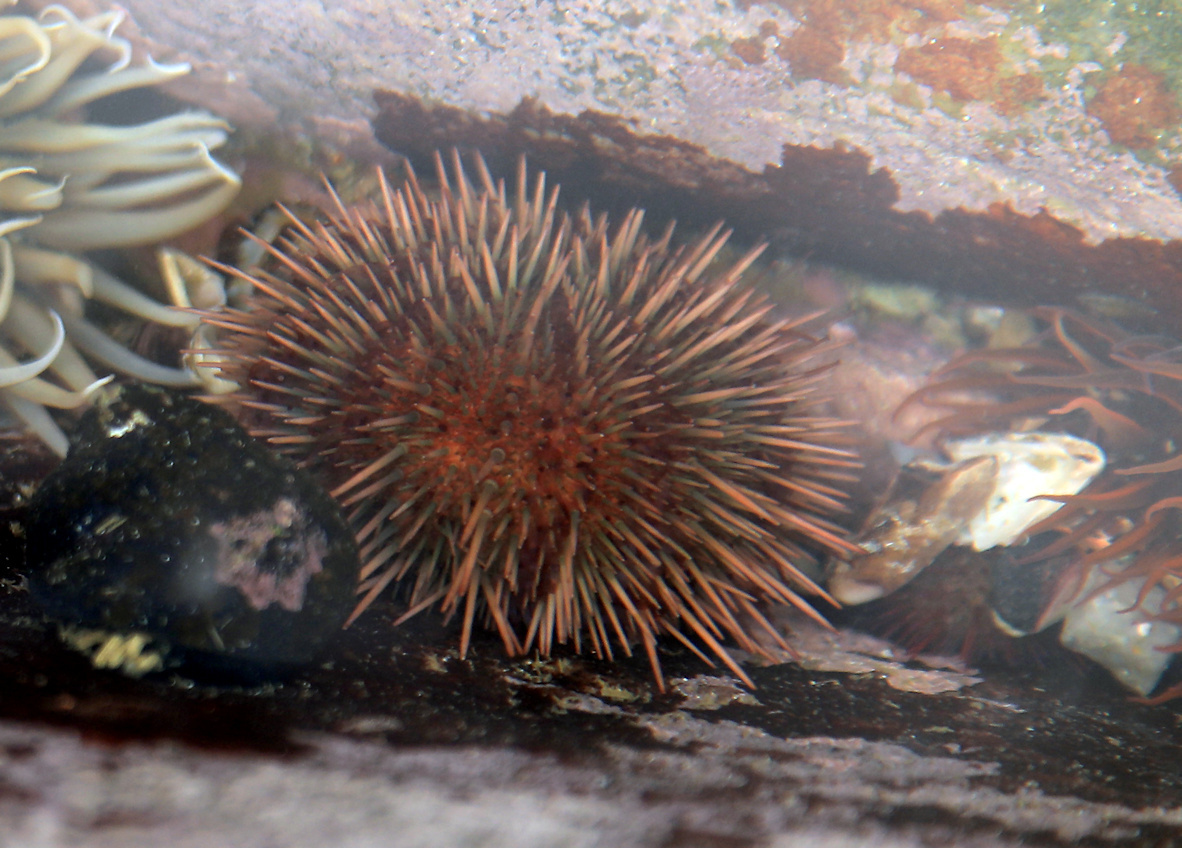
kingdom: Animalia
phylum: Echinodermata
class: Echinoidea
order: Camarodonta
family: Parechinidae
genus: Parechinus
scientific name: Parechinus angulosus
